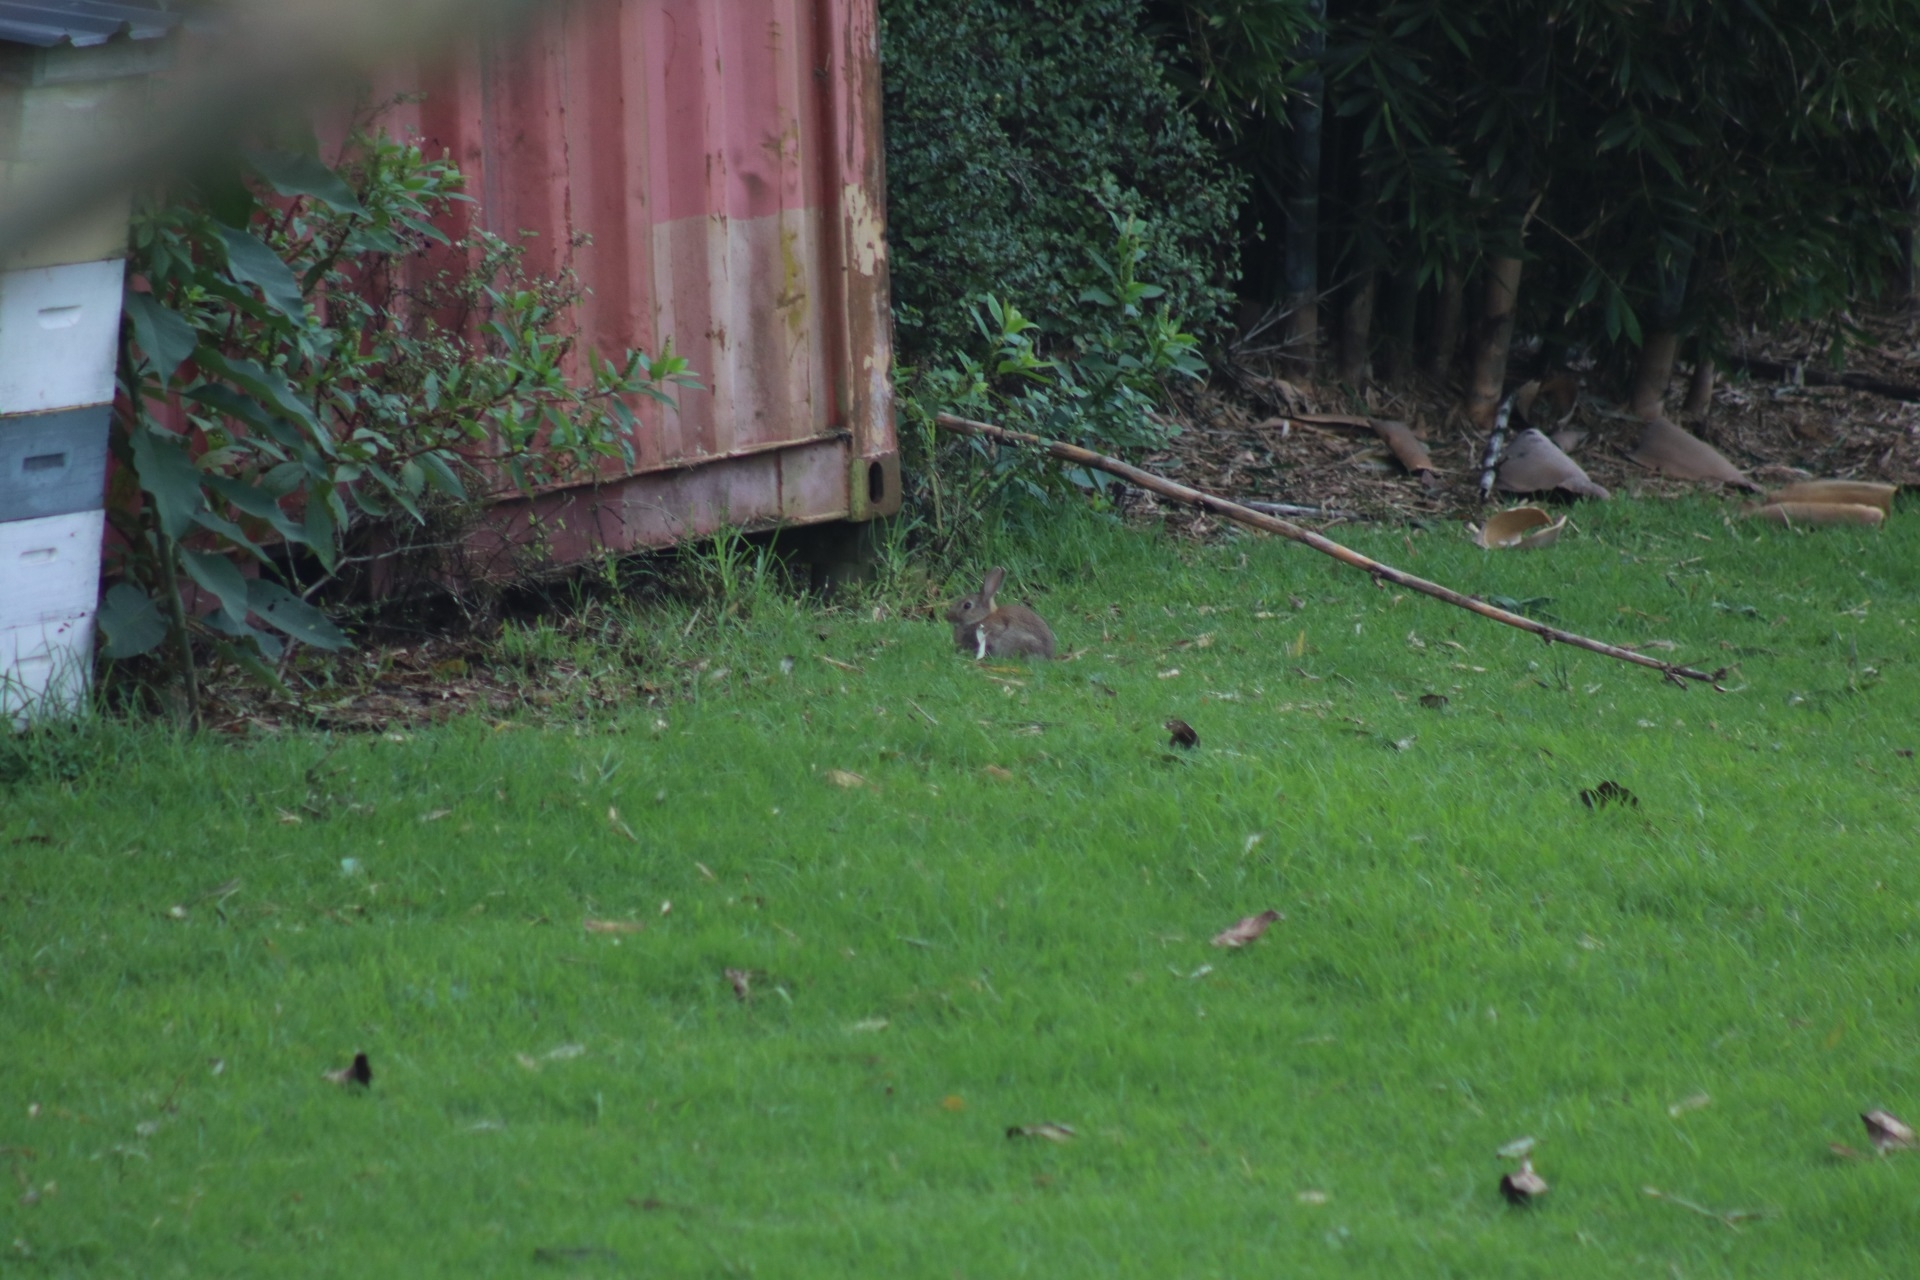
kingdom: Animalia
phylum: Chordata
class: Mammalia
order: Lagomorpha
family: Leporidae
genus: Oryctolagus
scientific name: Oryctolagus cuniculus
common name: European rabbit
